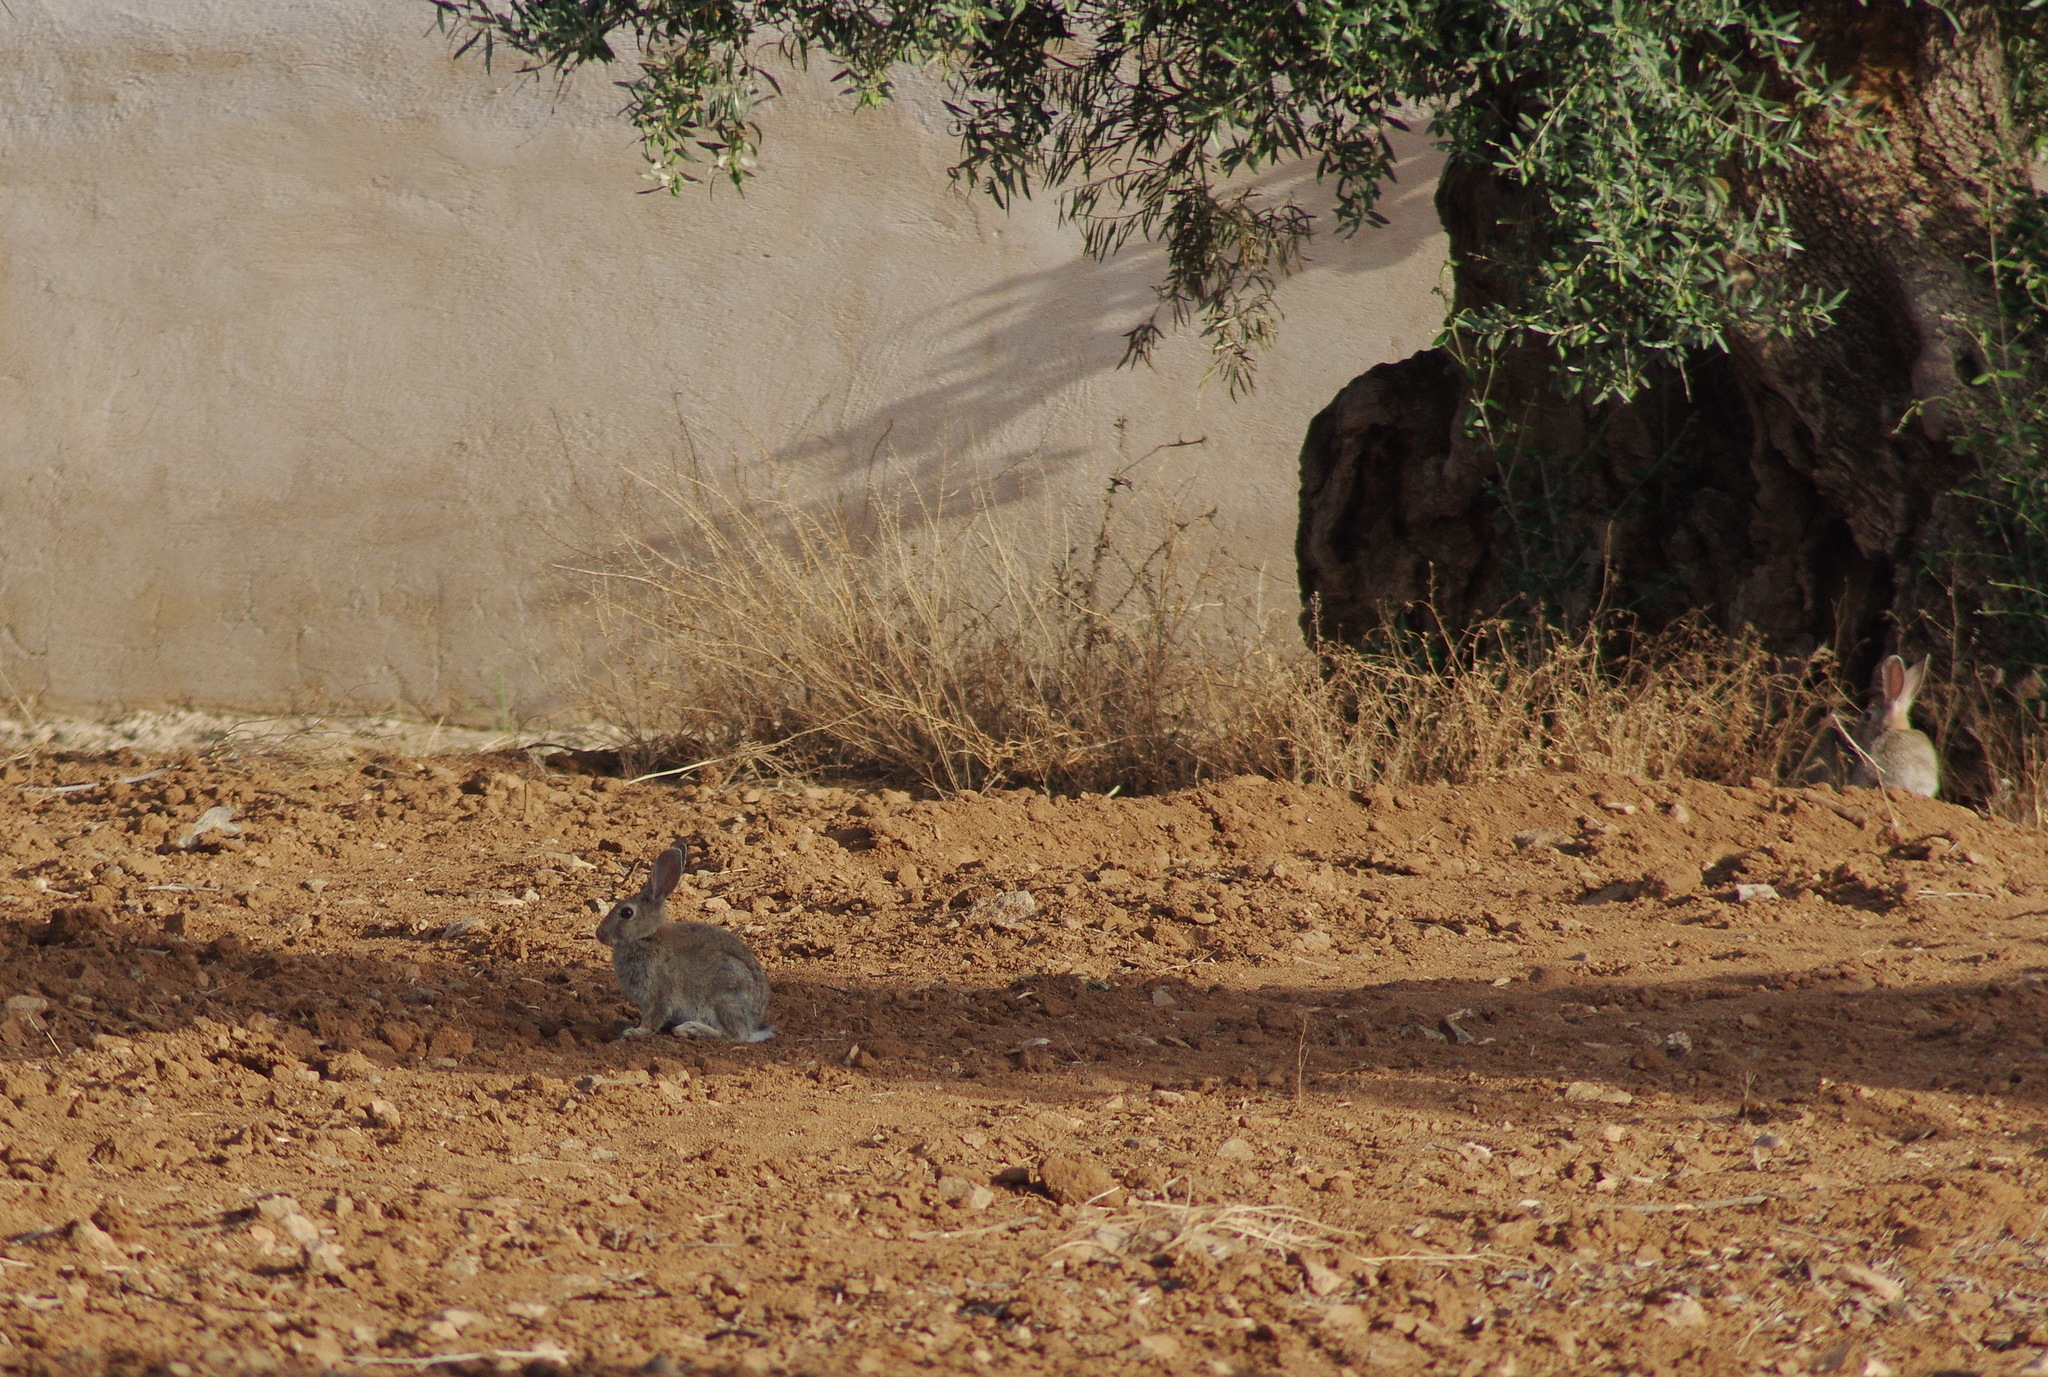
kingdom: Animalia
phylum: Chordata
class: Mammalia
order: Lagomorpha
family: Leporidae
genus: Oryctolagus
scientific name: Oryctolagus cuniculus
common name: European rabbit
